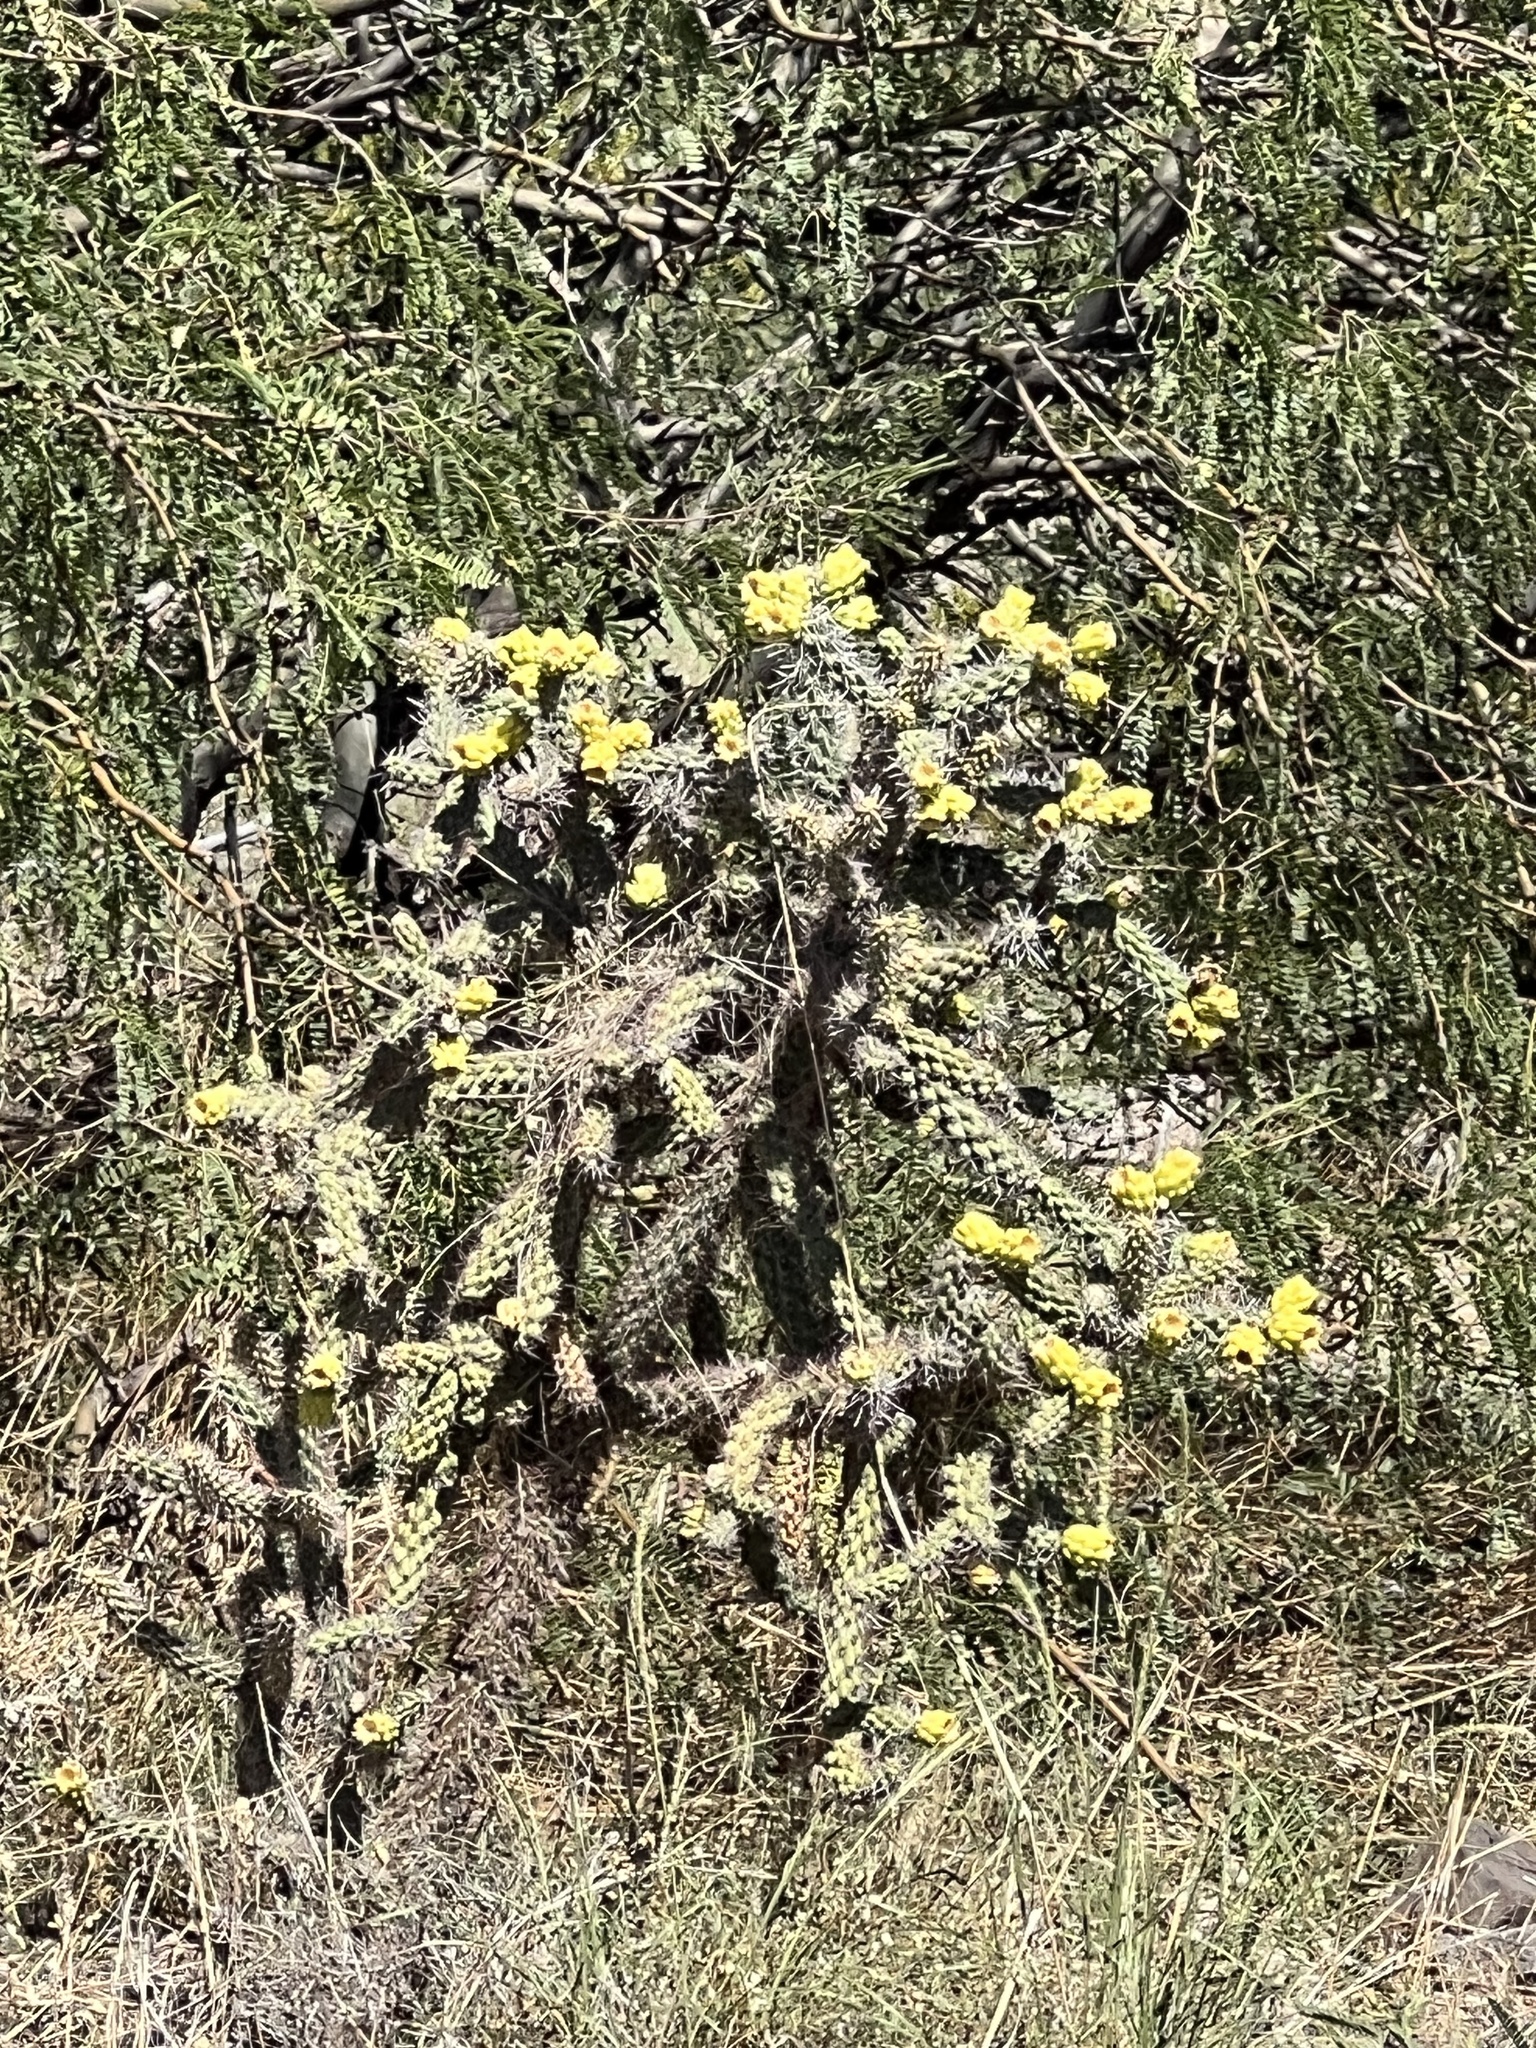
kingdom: Plantae
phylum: Tracheophyta
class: Magnoliopsida
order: Caryophyllales
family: Cactaceae
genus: Cylindropuntia
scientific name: Cylindropuntia imbricata
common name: Candelabrum cactus
